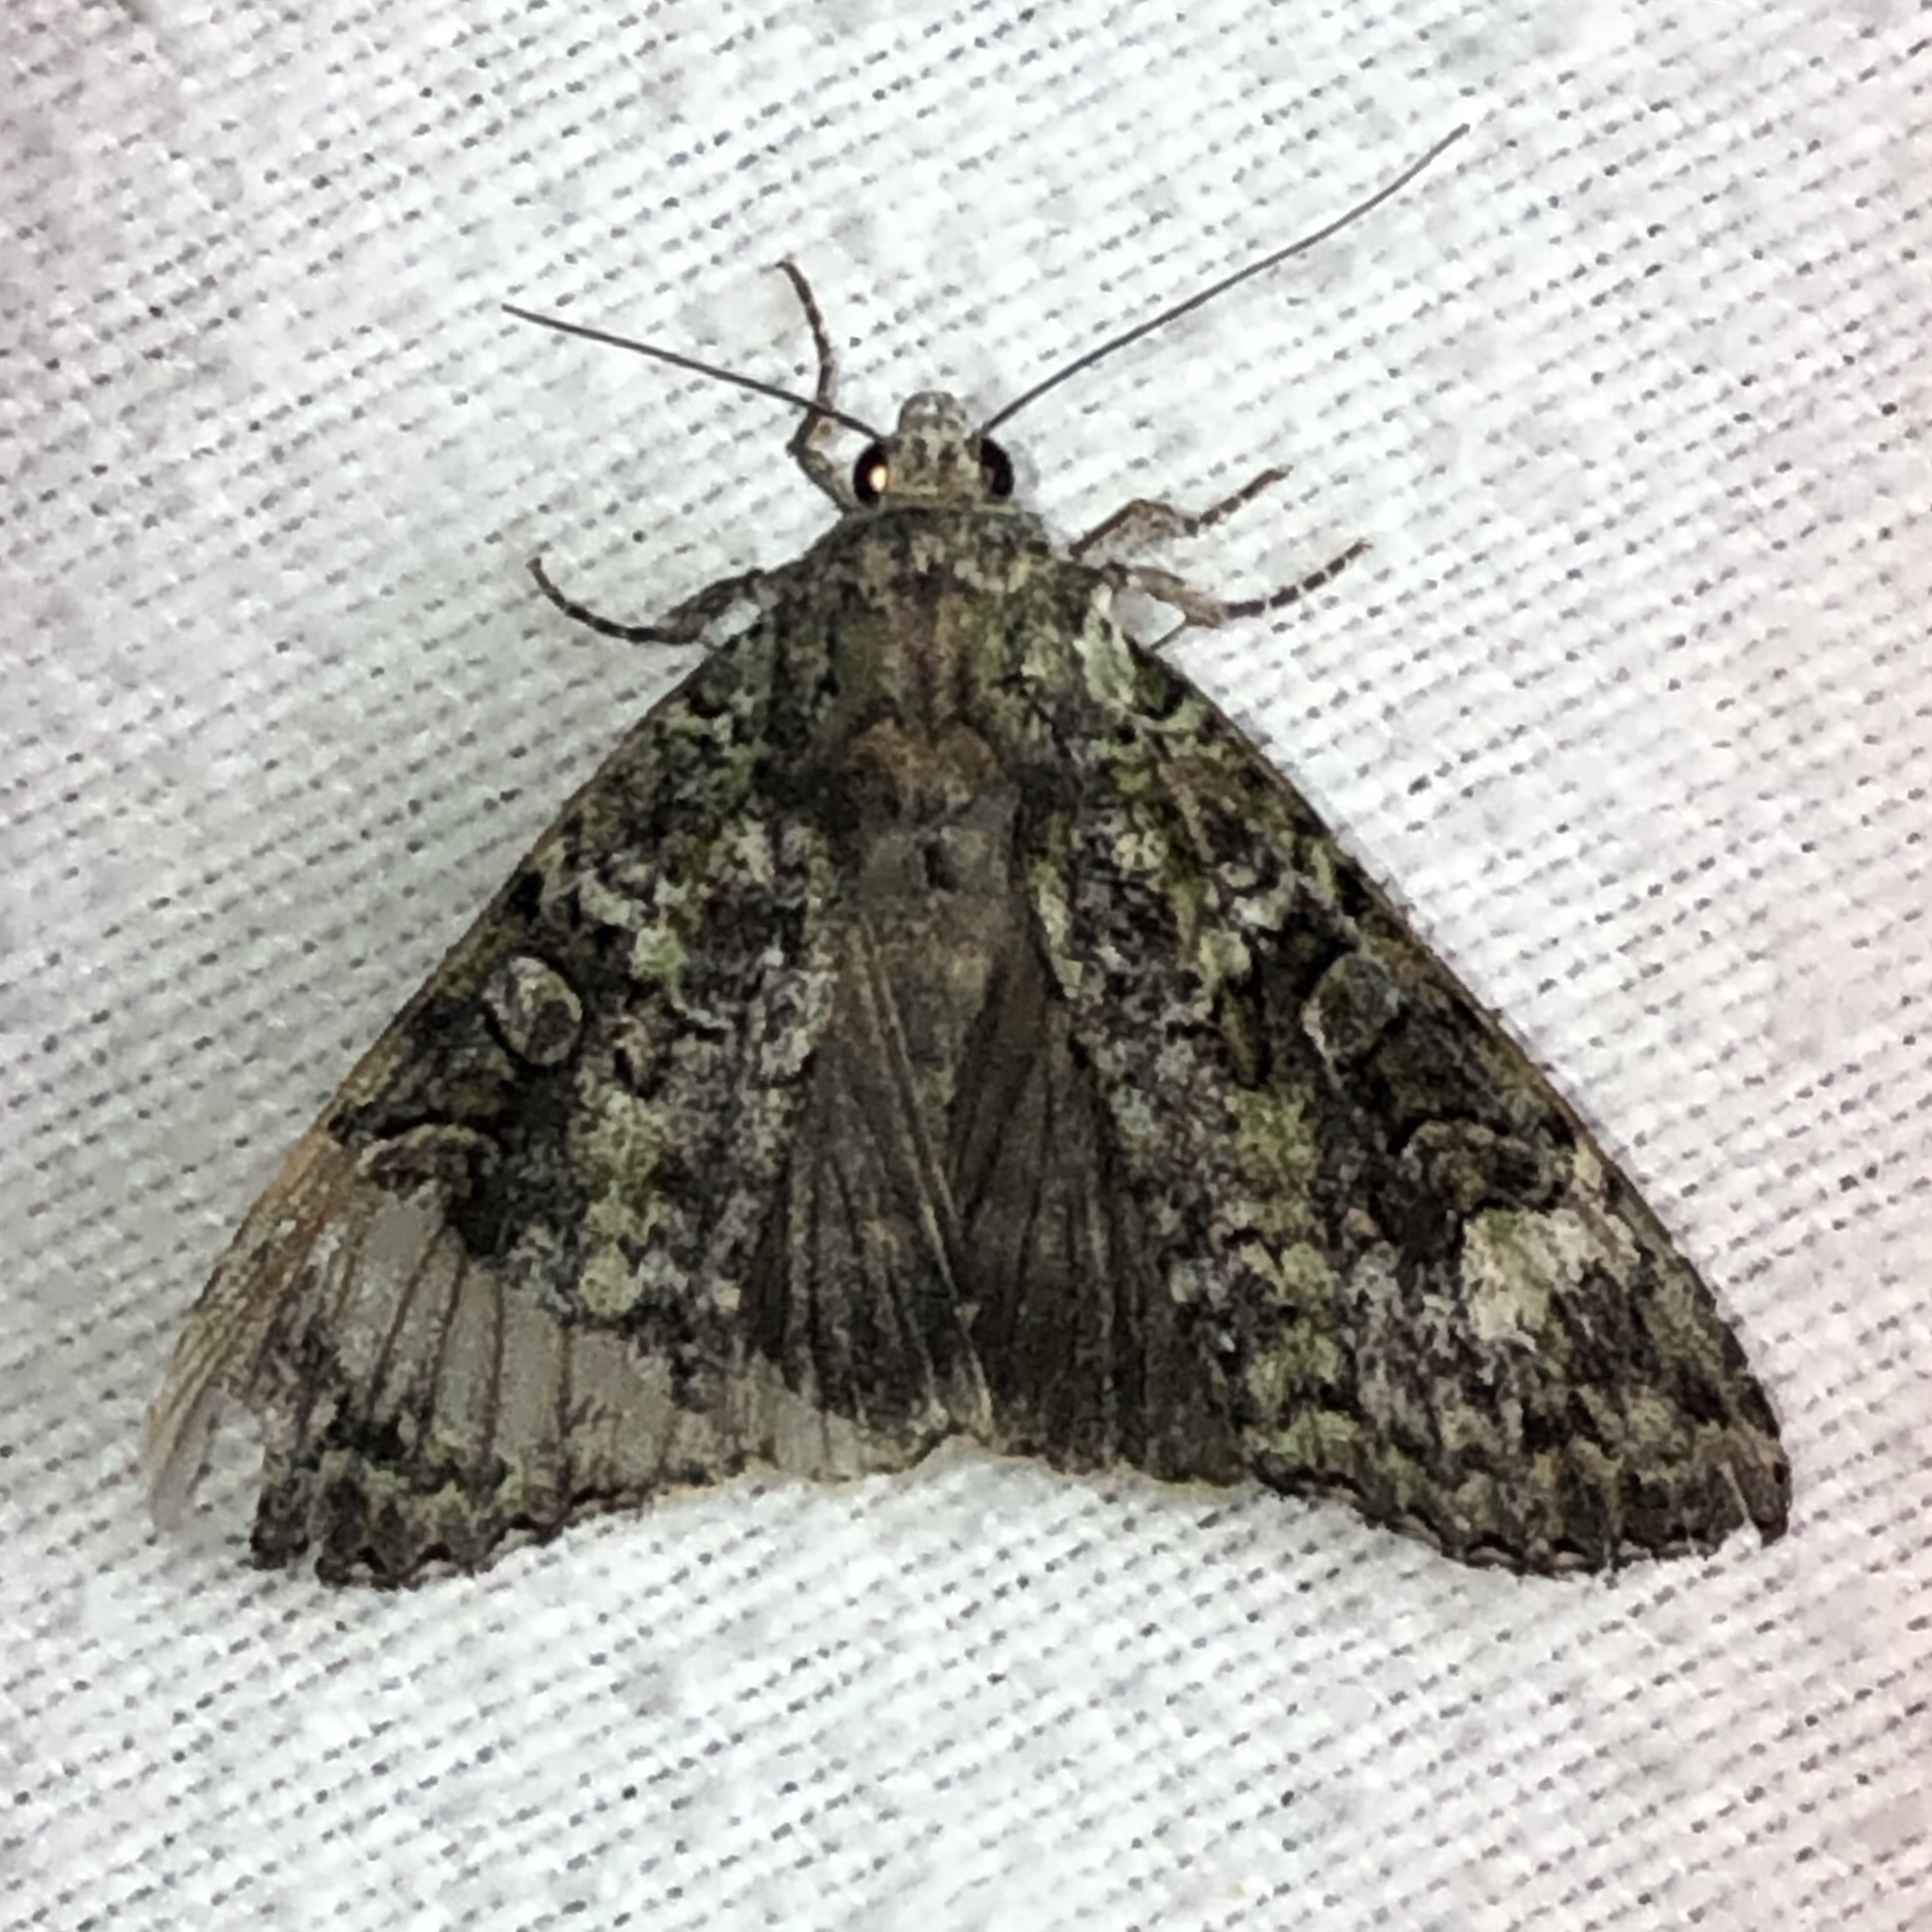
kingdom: Animalia
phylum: Arthropoda
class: Insecta
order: Lepidoptera
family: Noctuidae
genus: Anaplectoides
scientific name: Anaplectoides prasina
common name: Green arches
